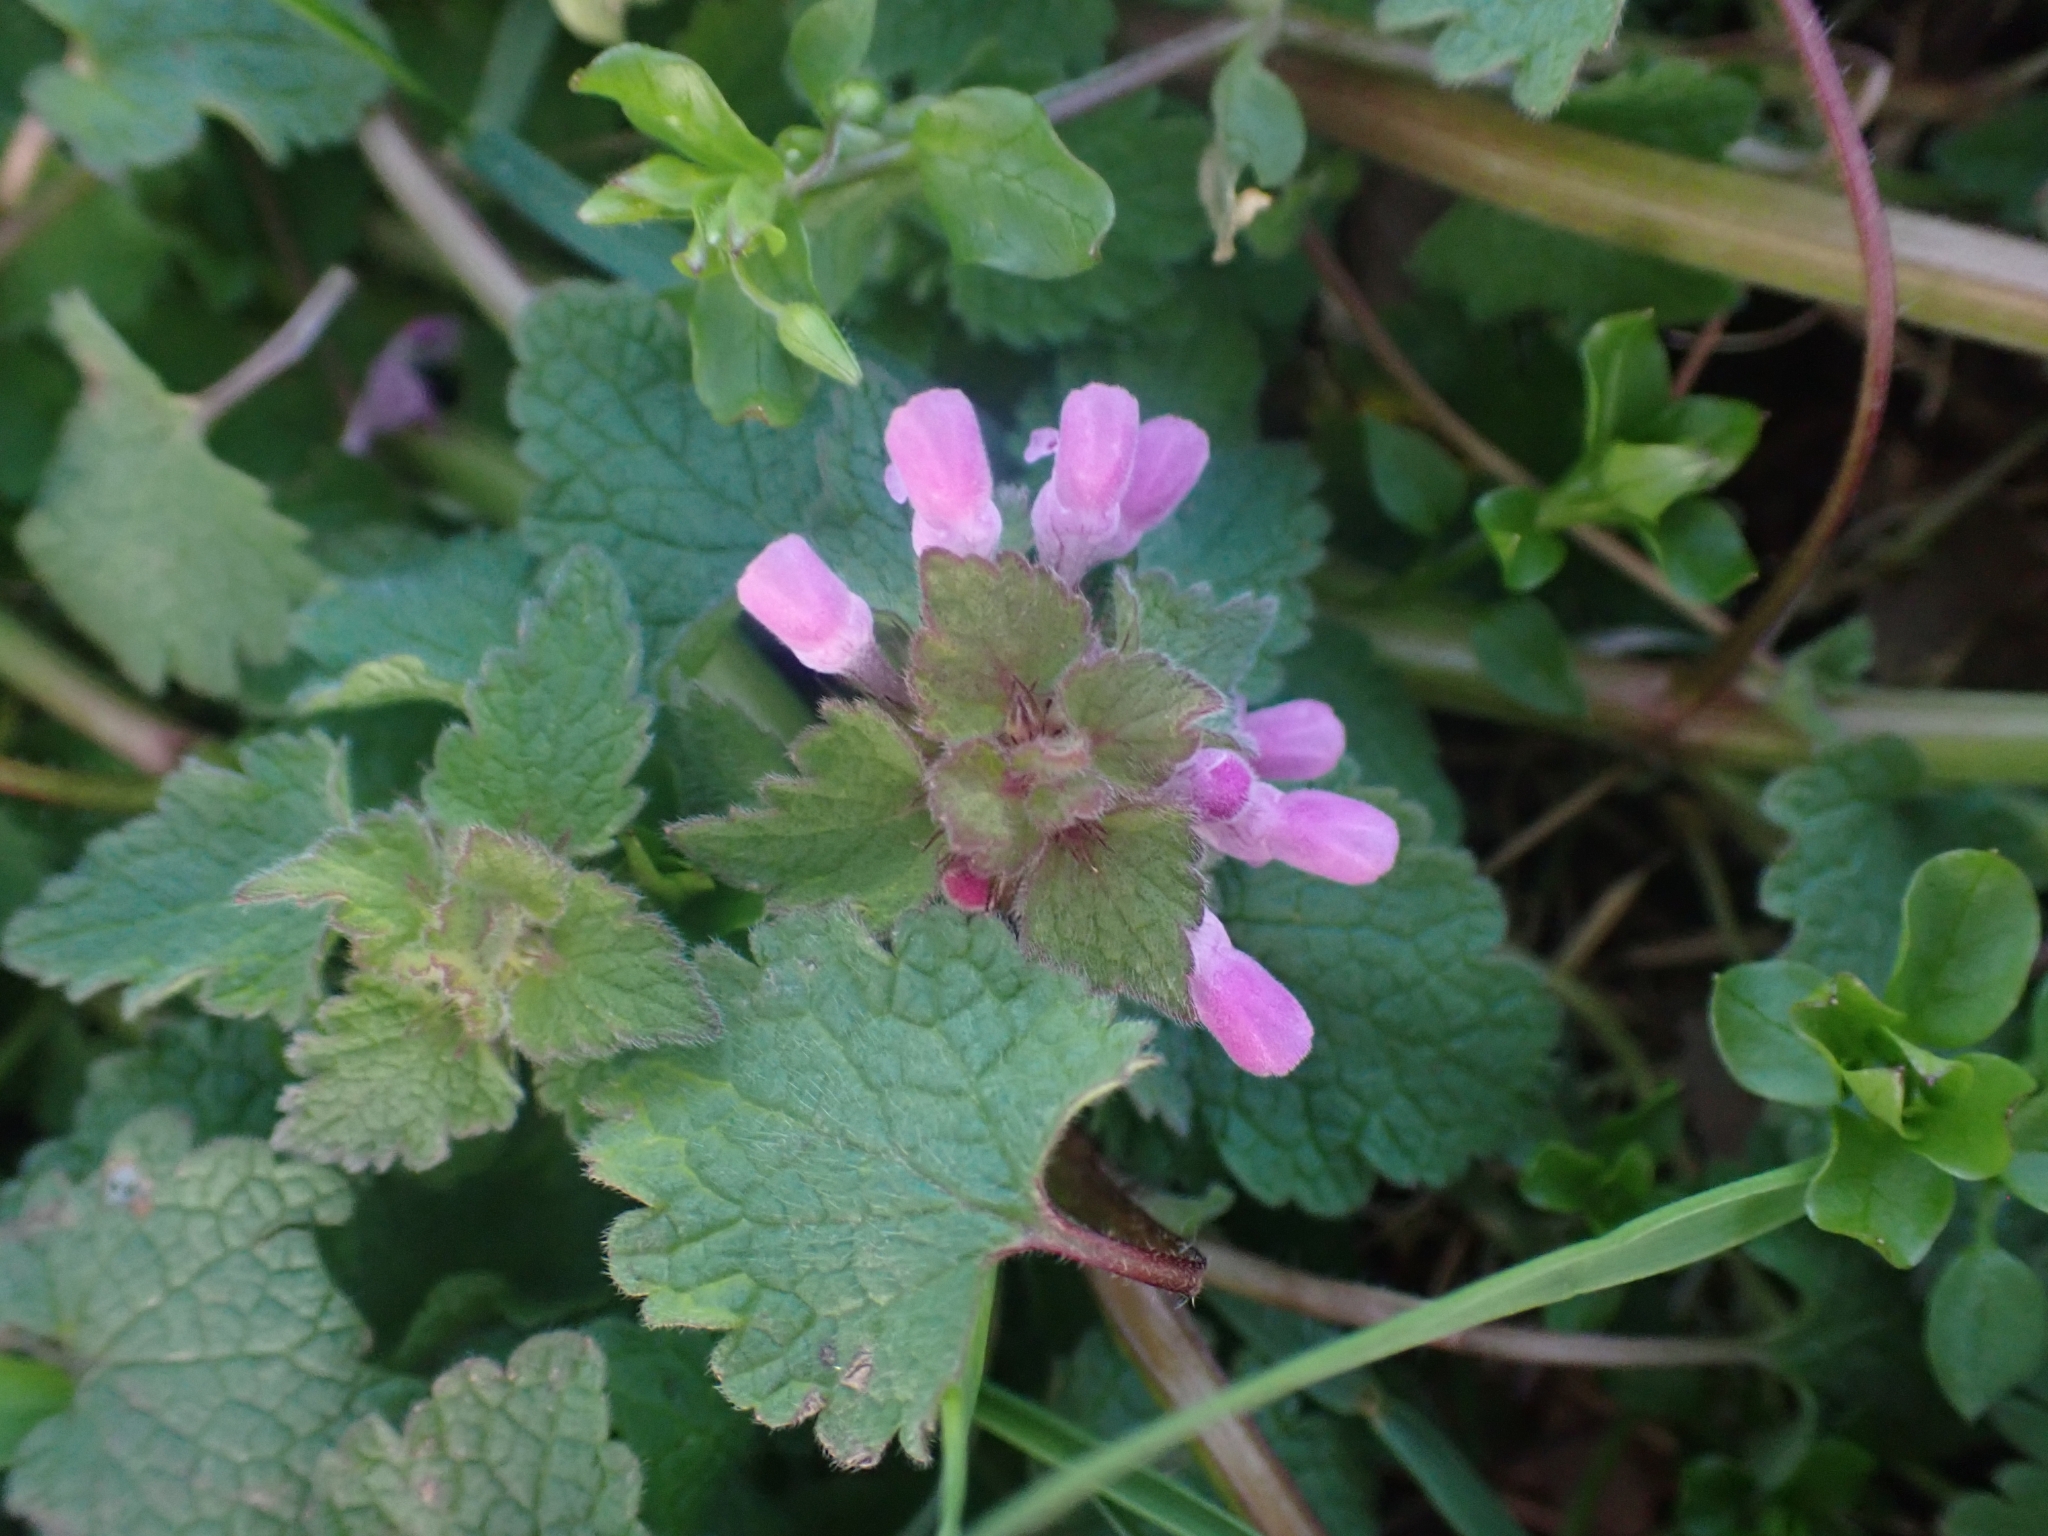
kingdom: Plantae
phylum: Tracheophyta
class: Magnoliopsida
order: Lamiales
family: Lamiaceae
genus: Lamium
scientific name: Lamium purpureum
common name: Red dead-nettle
